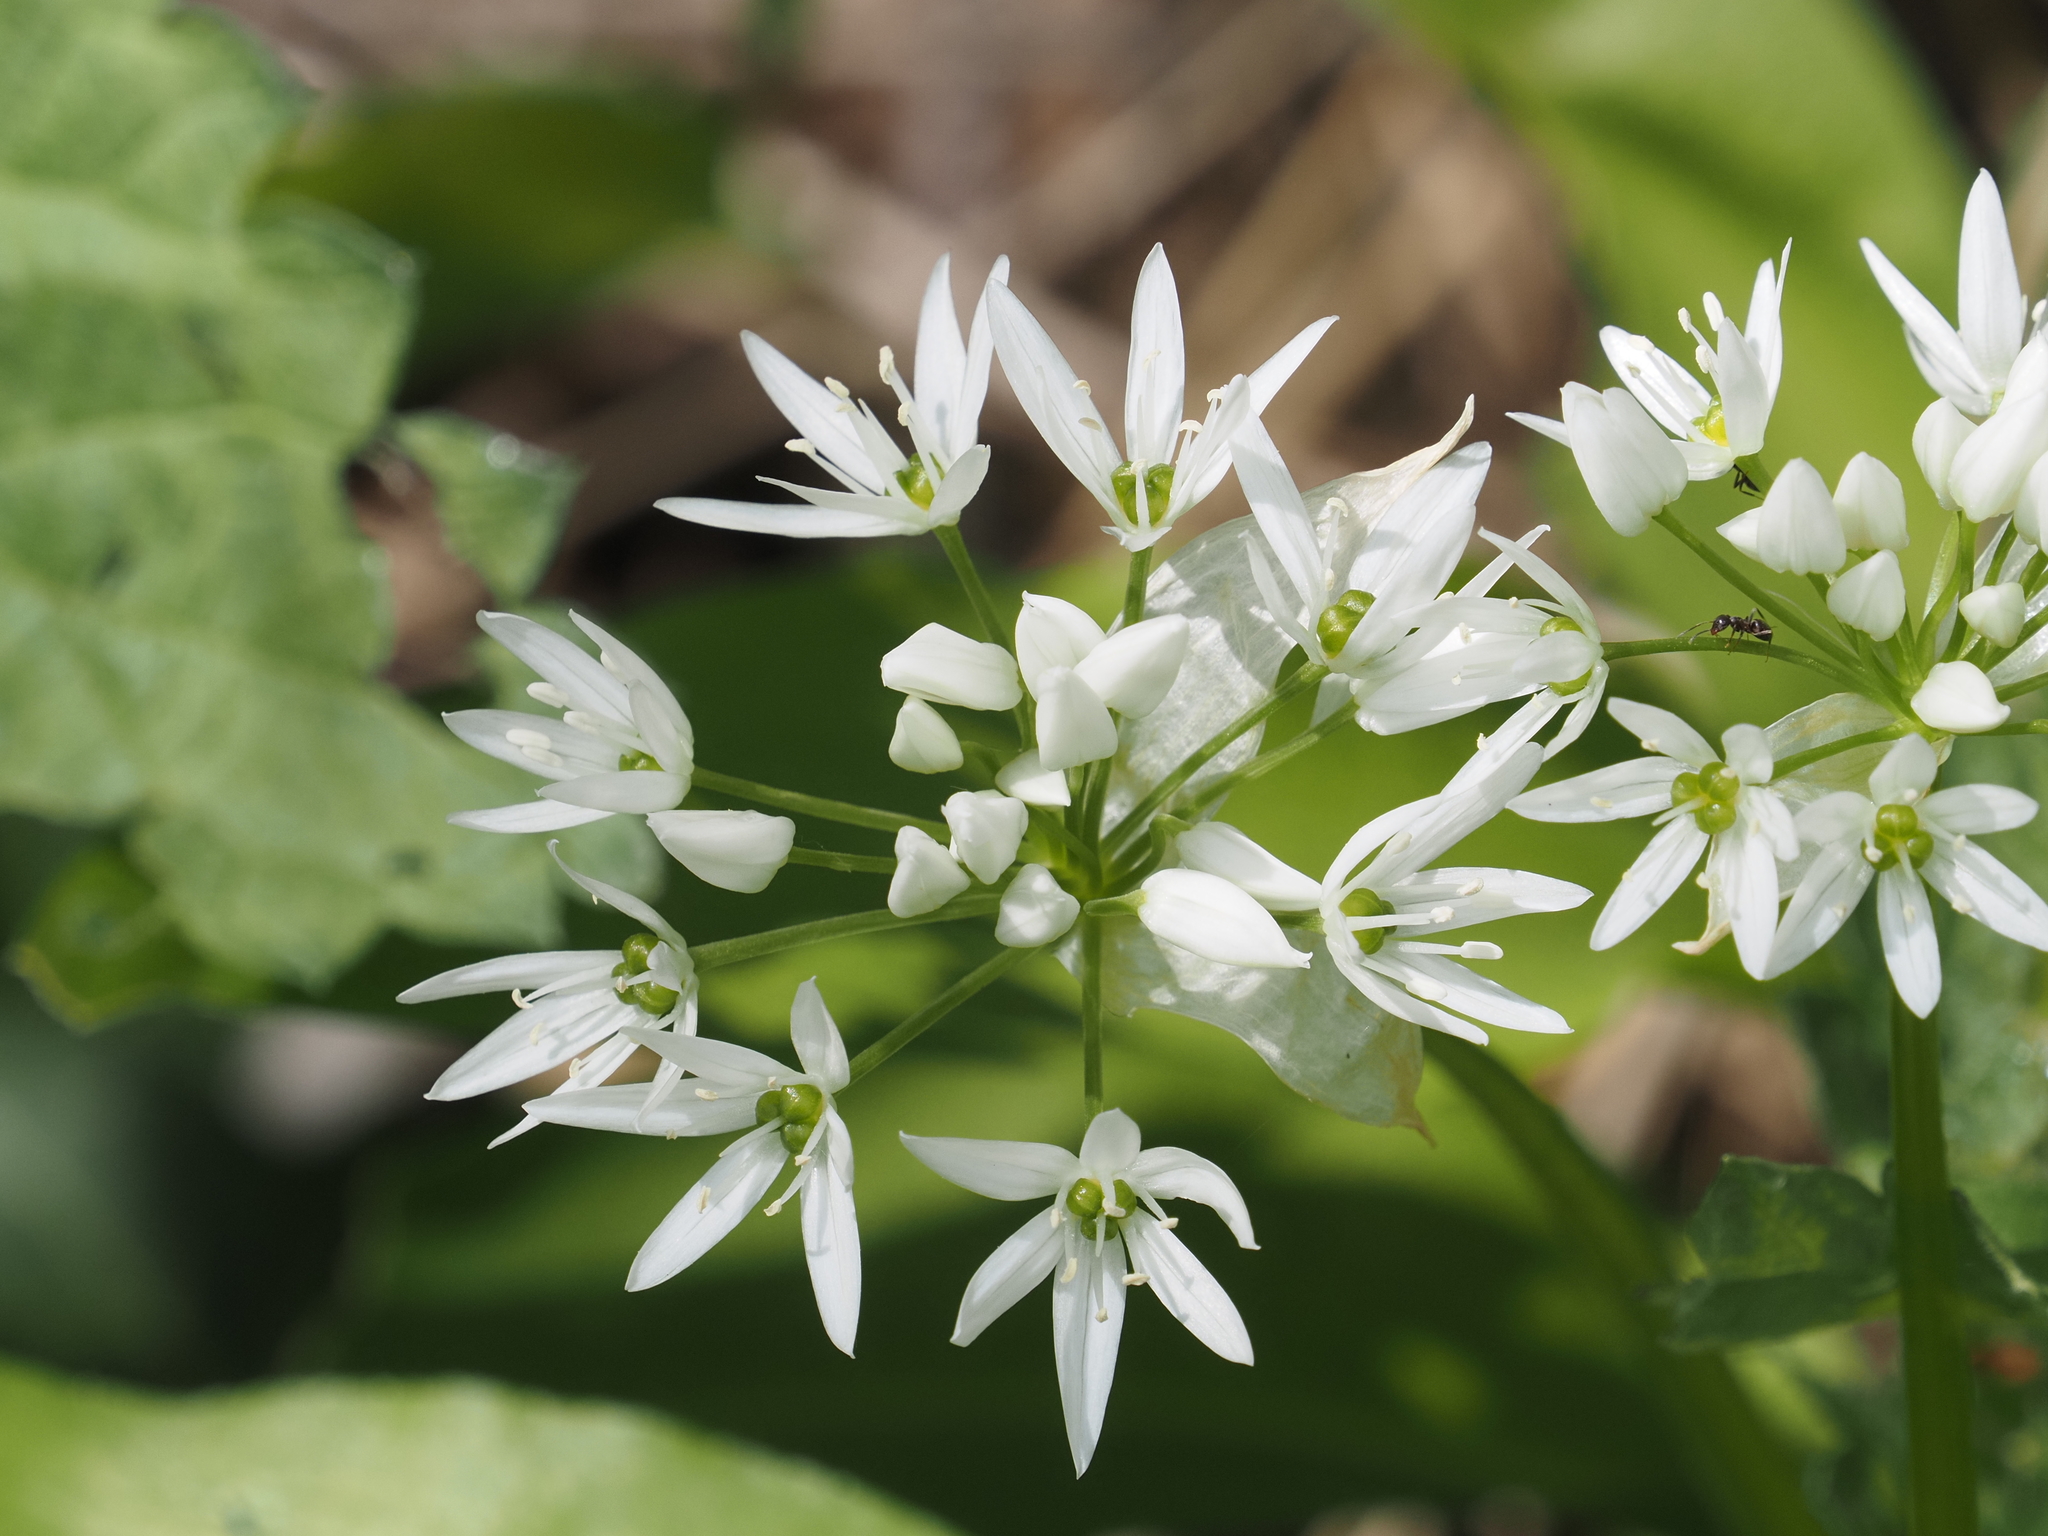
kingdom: Plantae
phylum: Tracheophyta
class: Liliopsida
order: Asparagales
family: Amaryllidaceae
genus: Allium
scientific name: Allium ursinum
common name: Ramsons
